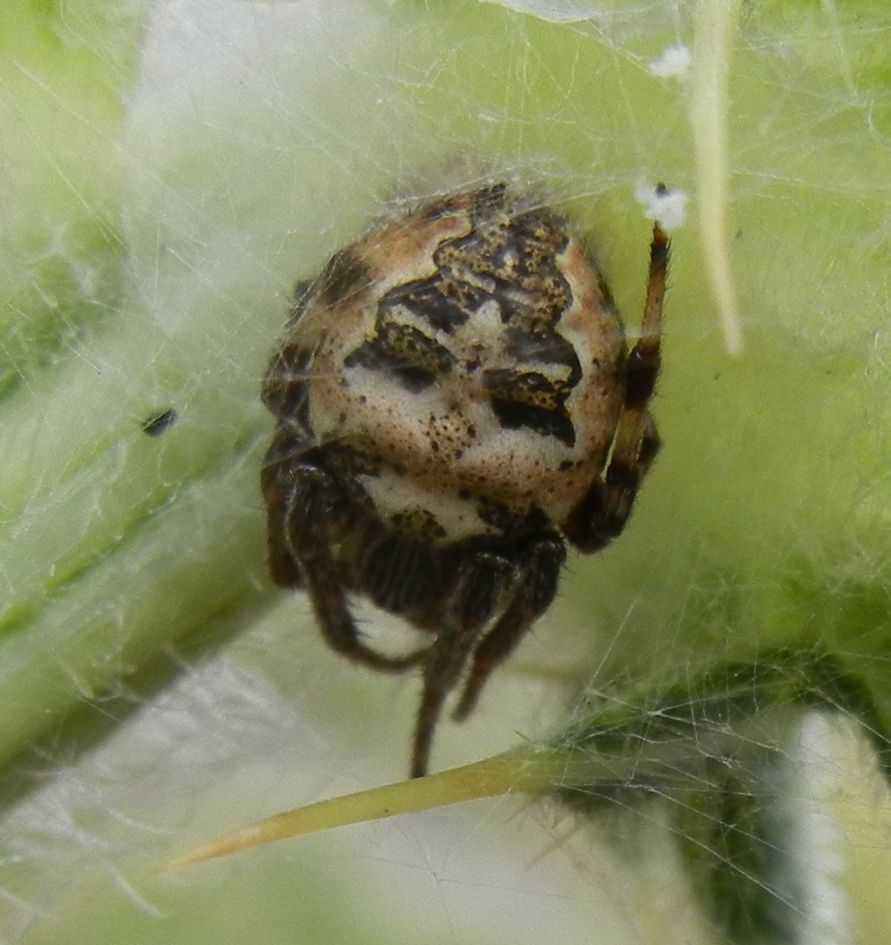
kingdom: Animalia
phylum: Arthropoda
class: Arachnida
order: Araneae
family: Araneidae
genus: Larinioides
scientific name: Larinioides cornutus
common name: Furrow orbweaver
